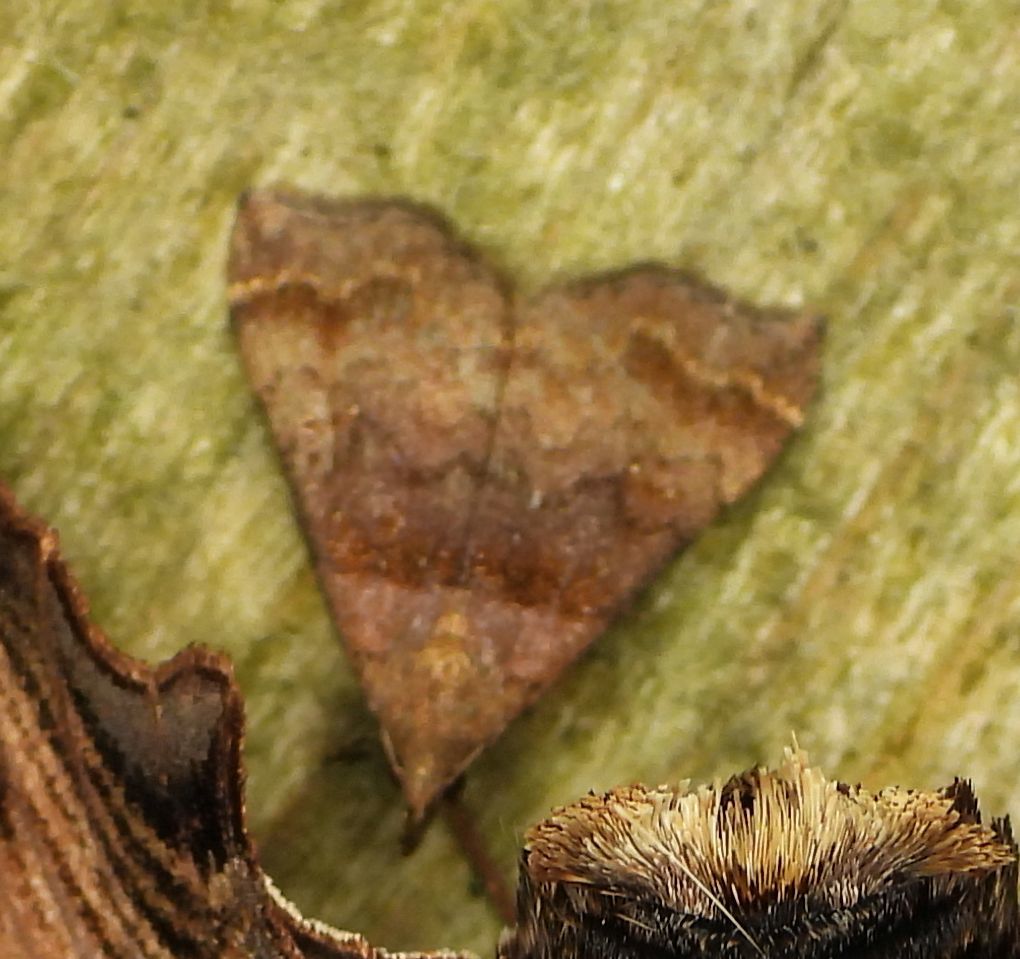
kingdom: Animalia
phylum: Arthropoda
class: Insecta
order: Lepidoptera
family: Erebidae
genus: Lascoria
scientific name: Lascoria ambigualis
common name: Ambiguous moth
